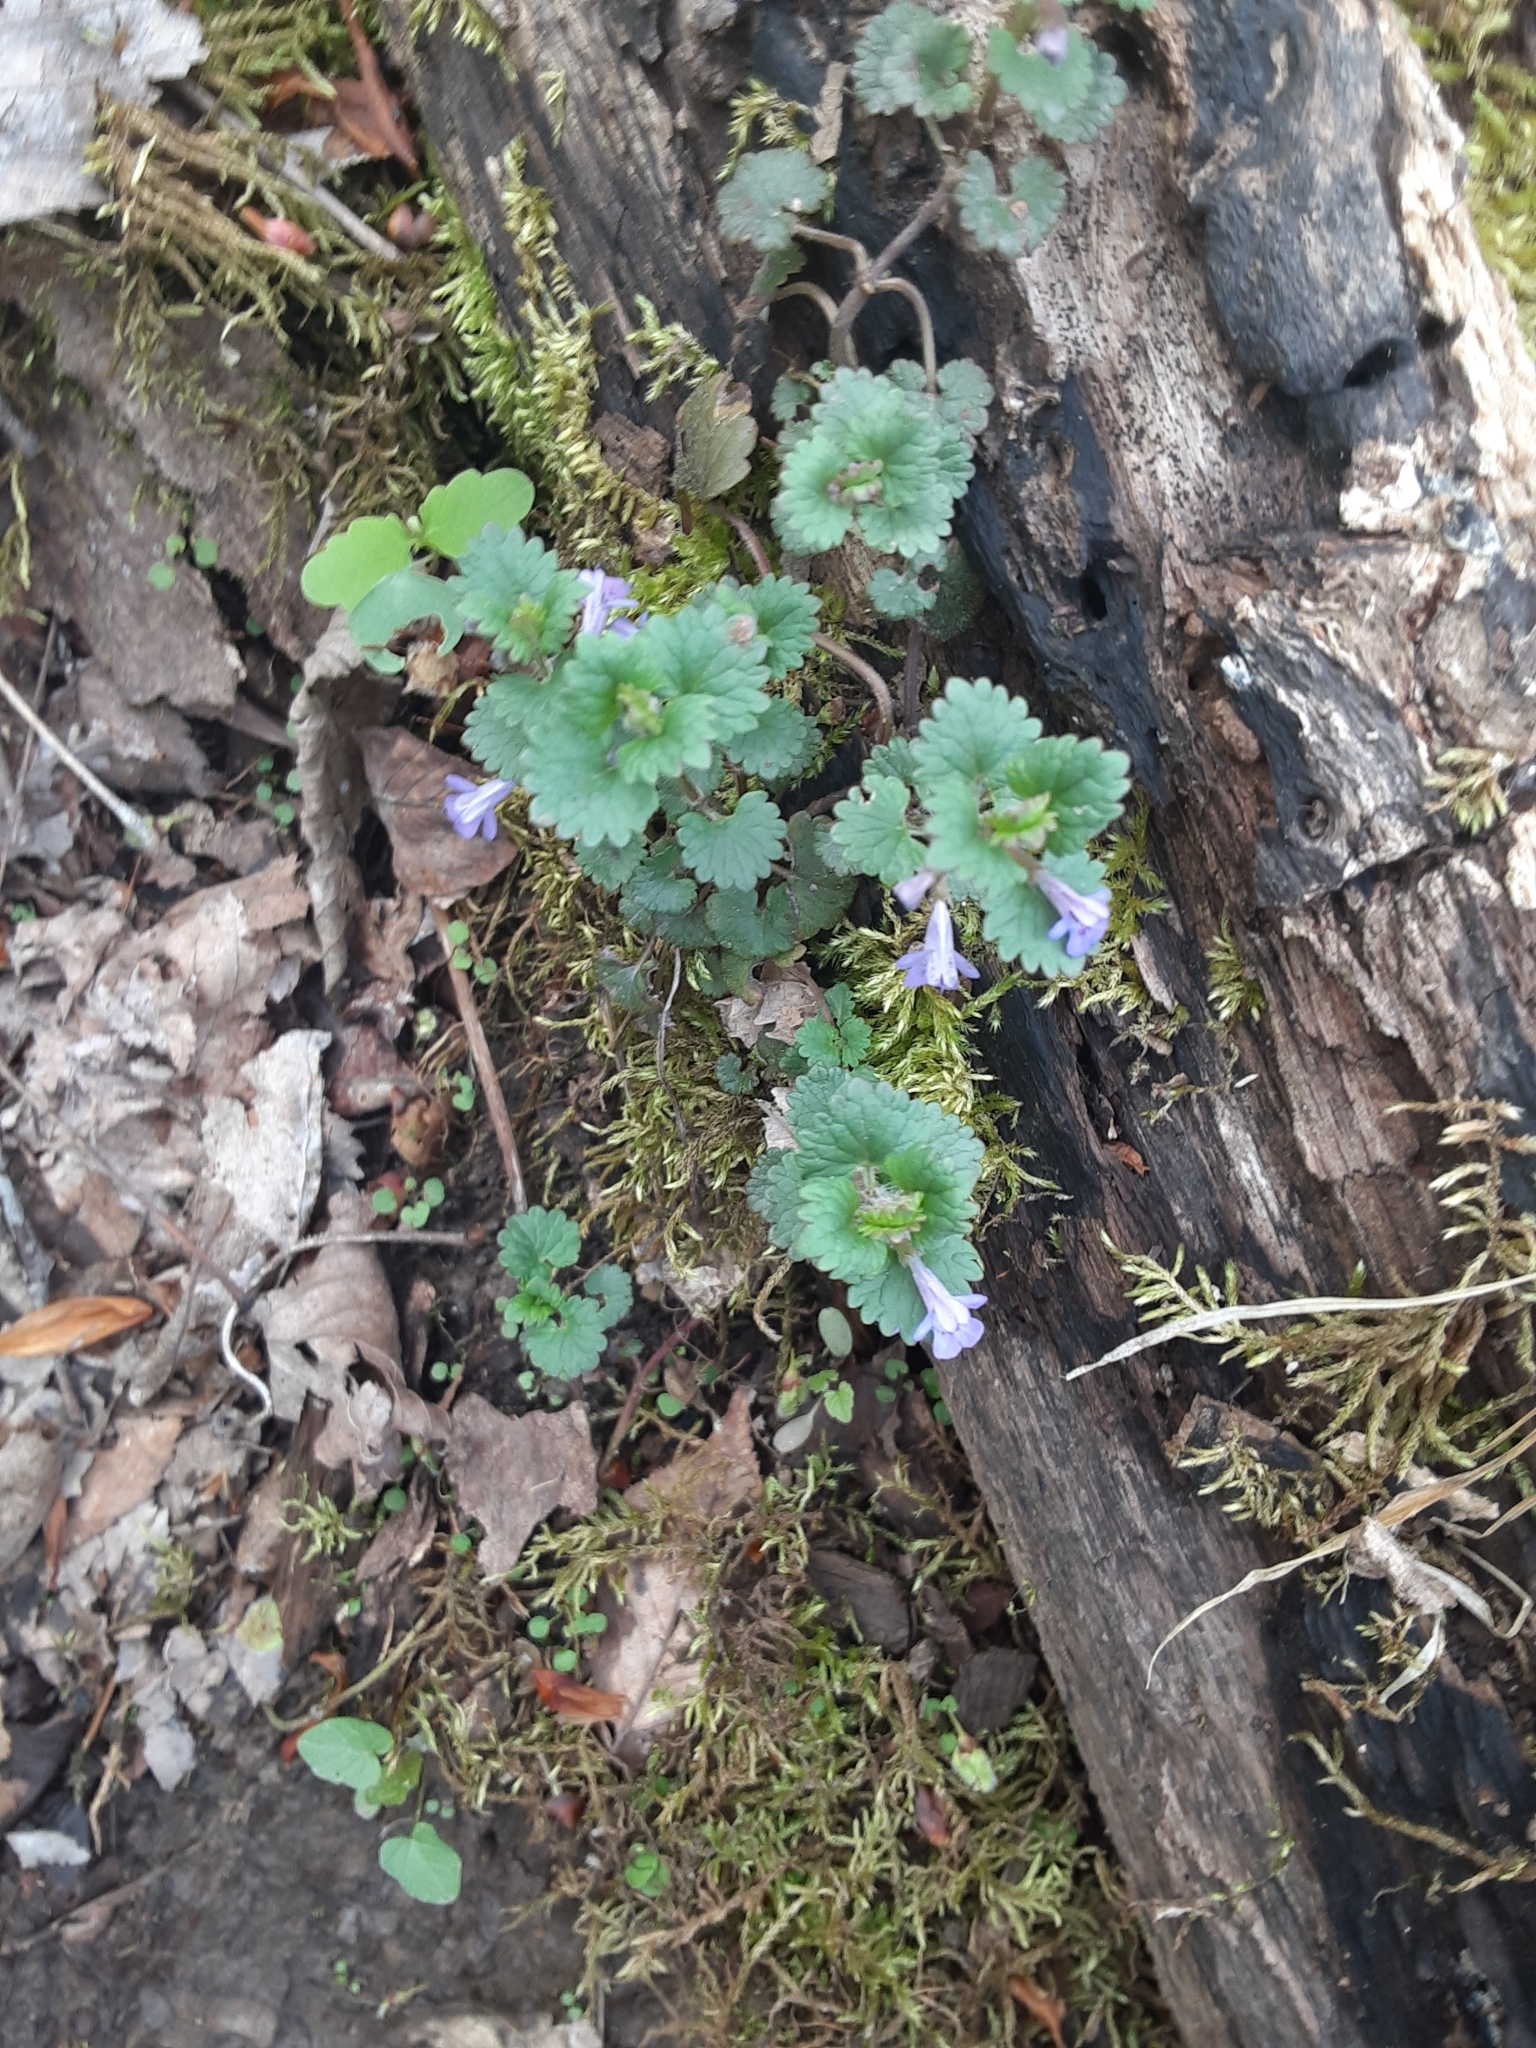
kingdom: Plantae
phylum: Tracheophyta
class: Magnoliopsida
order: Lamiales
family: Lamiaceae
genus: Glechoma
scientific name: Glechoma hederacea
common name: Ground ivy
